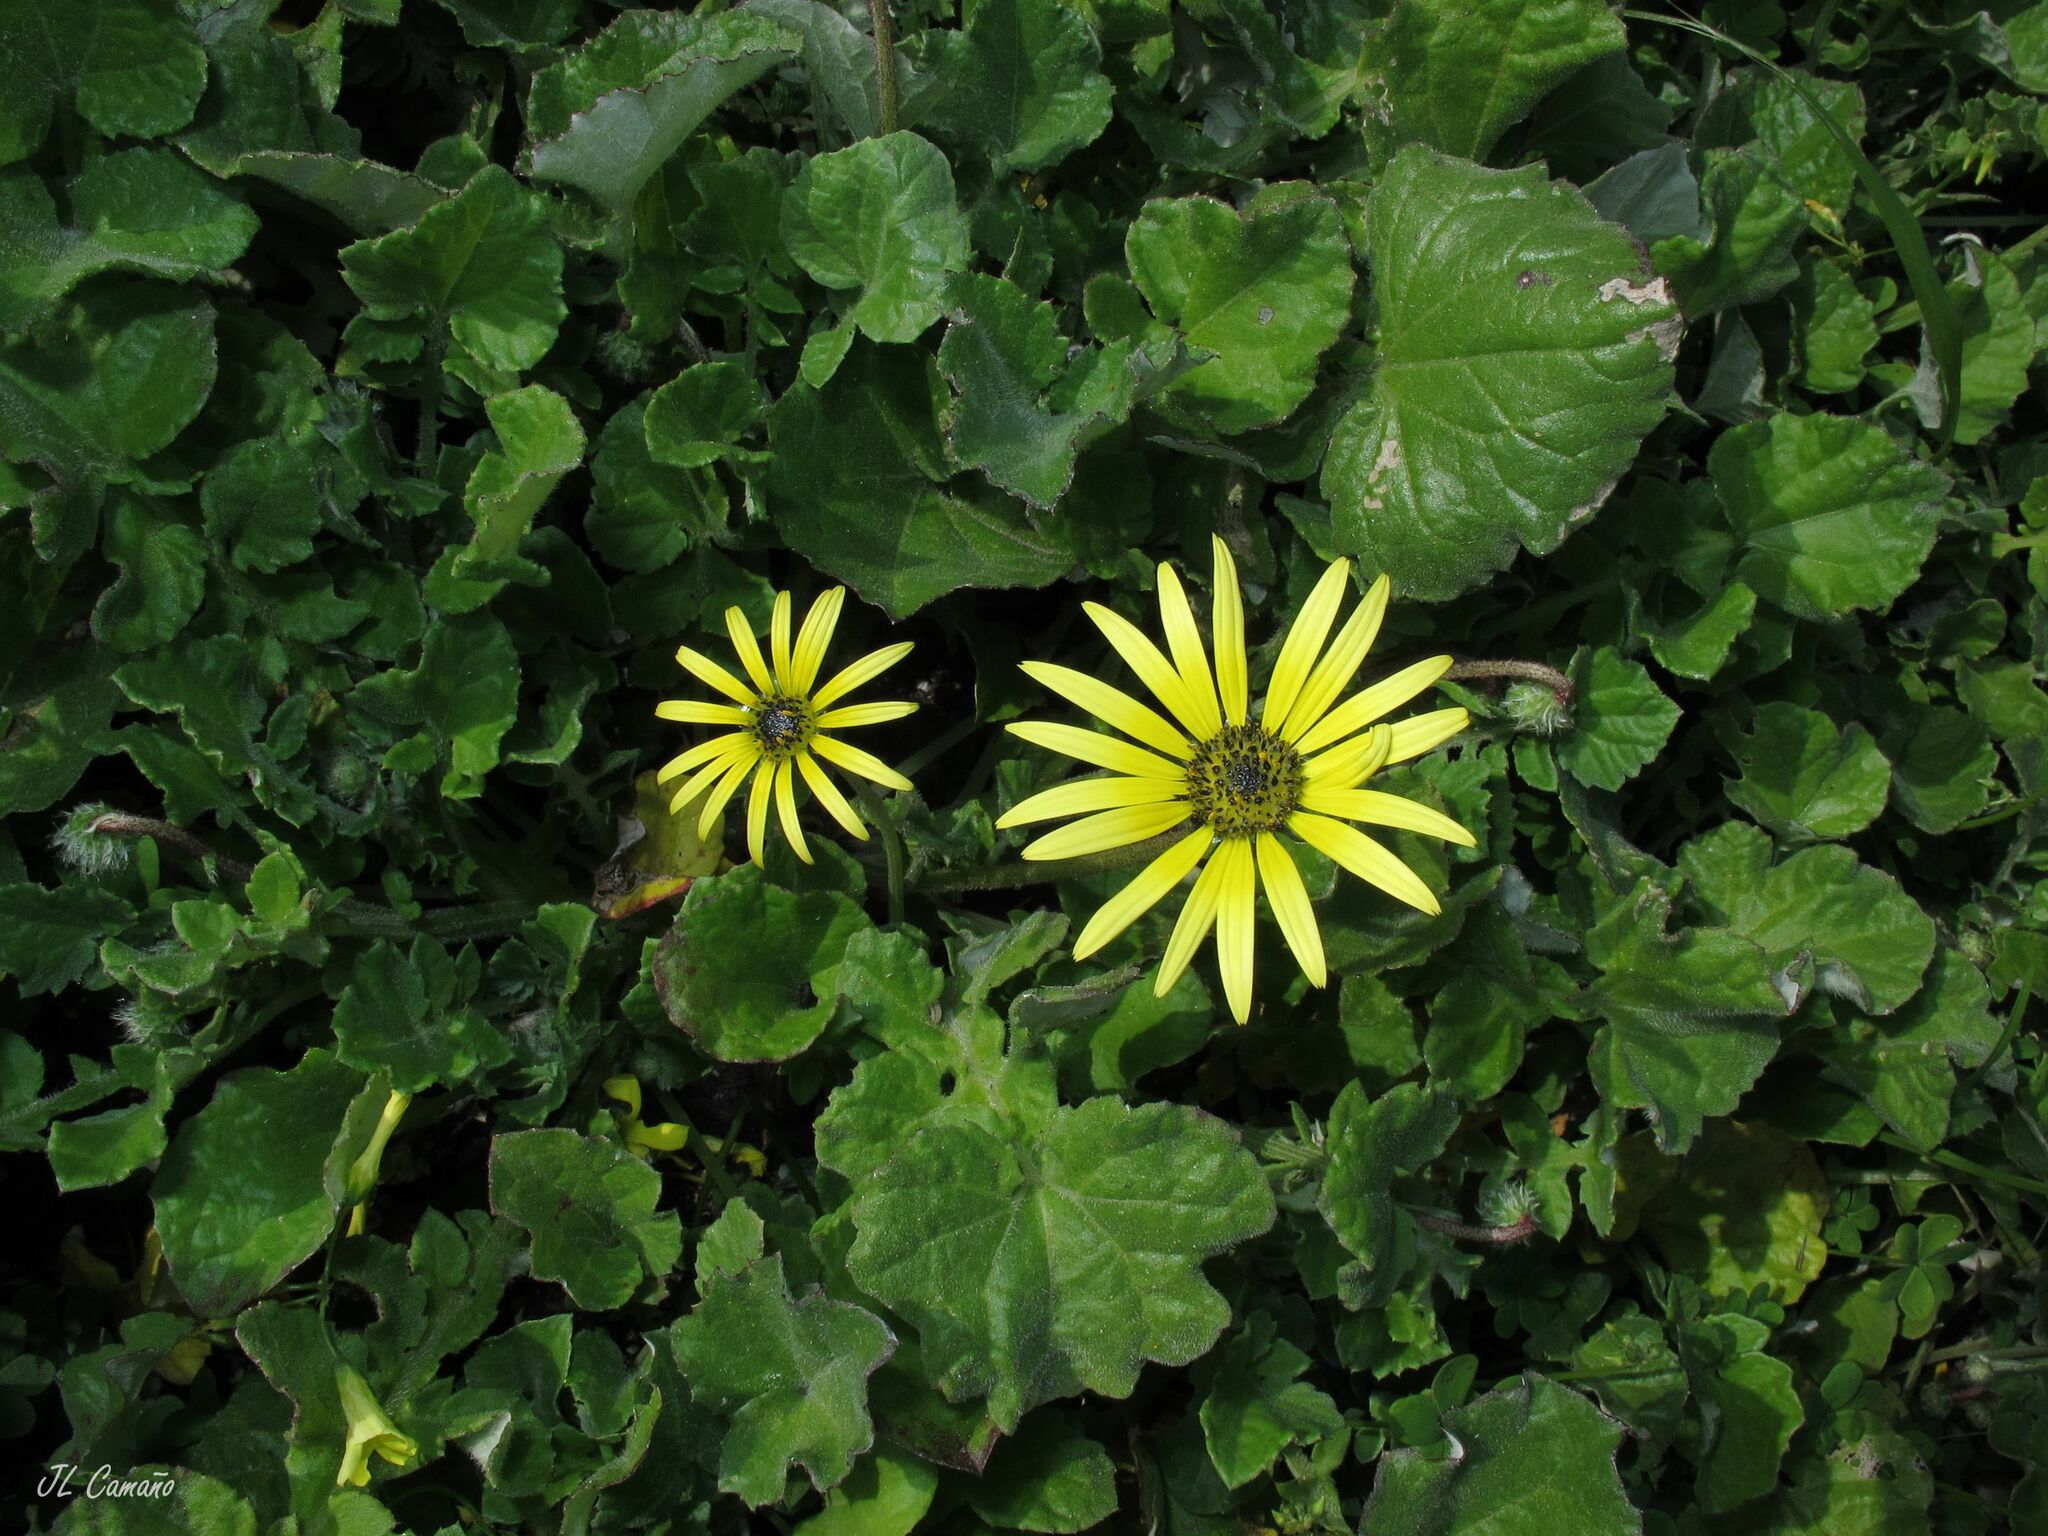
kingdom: Plantae
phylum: Tracheophyta
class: Magnoliopsida
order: Asterales
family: Asteraceae
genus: Arctotheca
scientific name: Arctotheca calendula
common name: Capeweed
